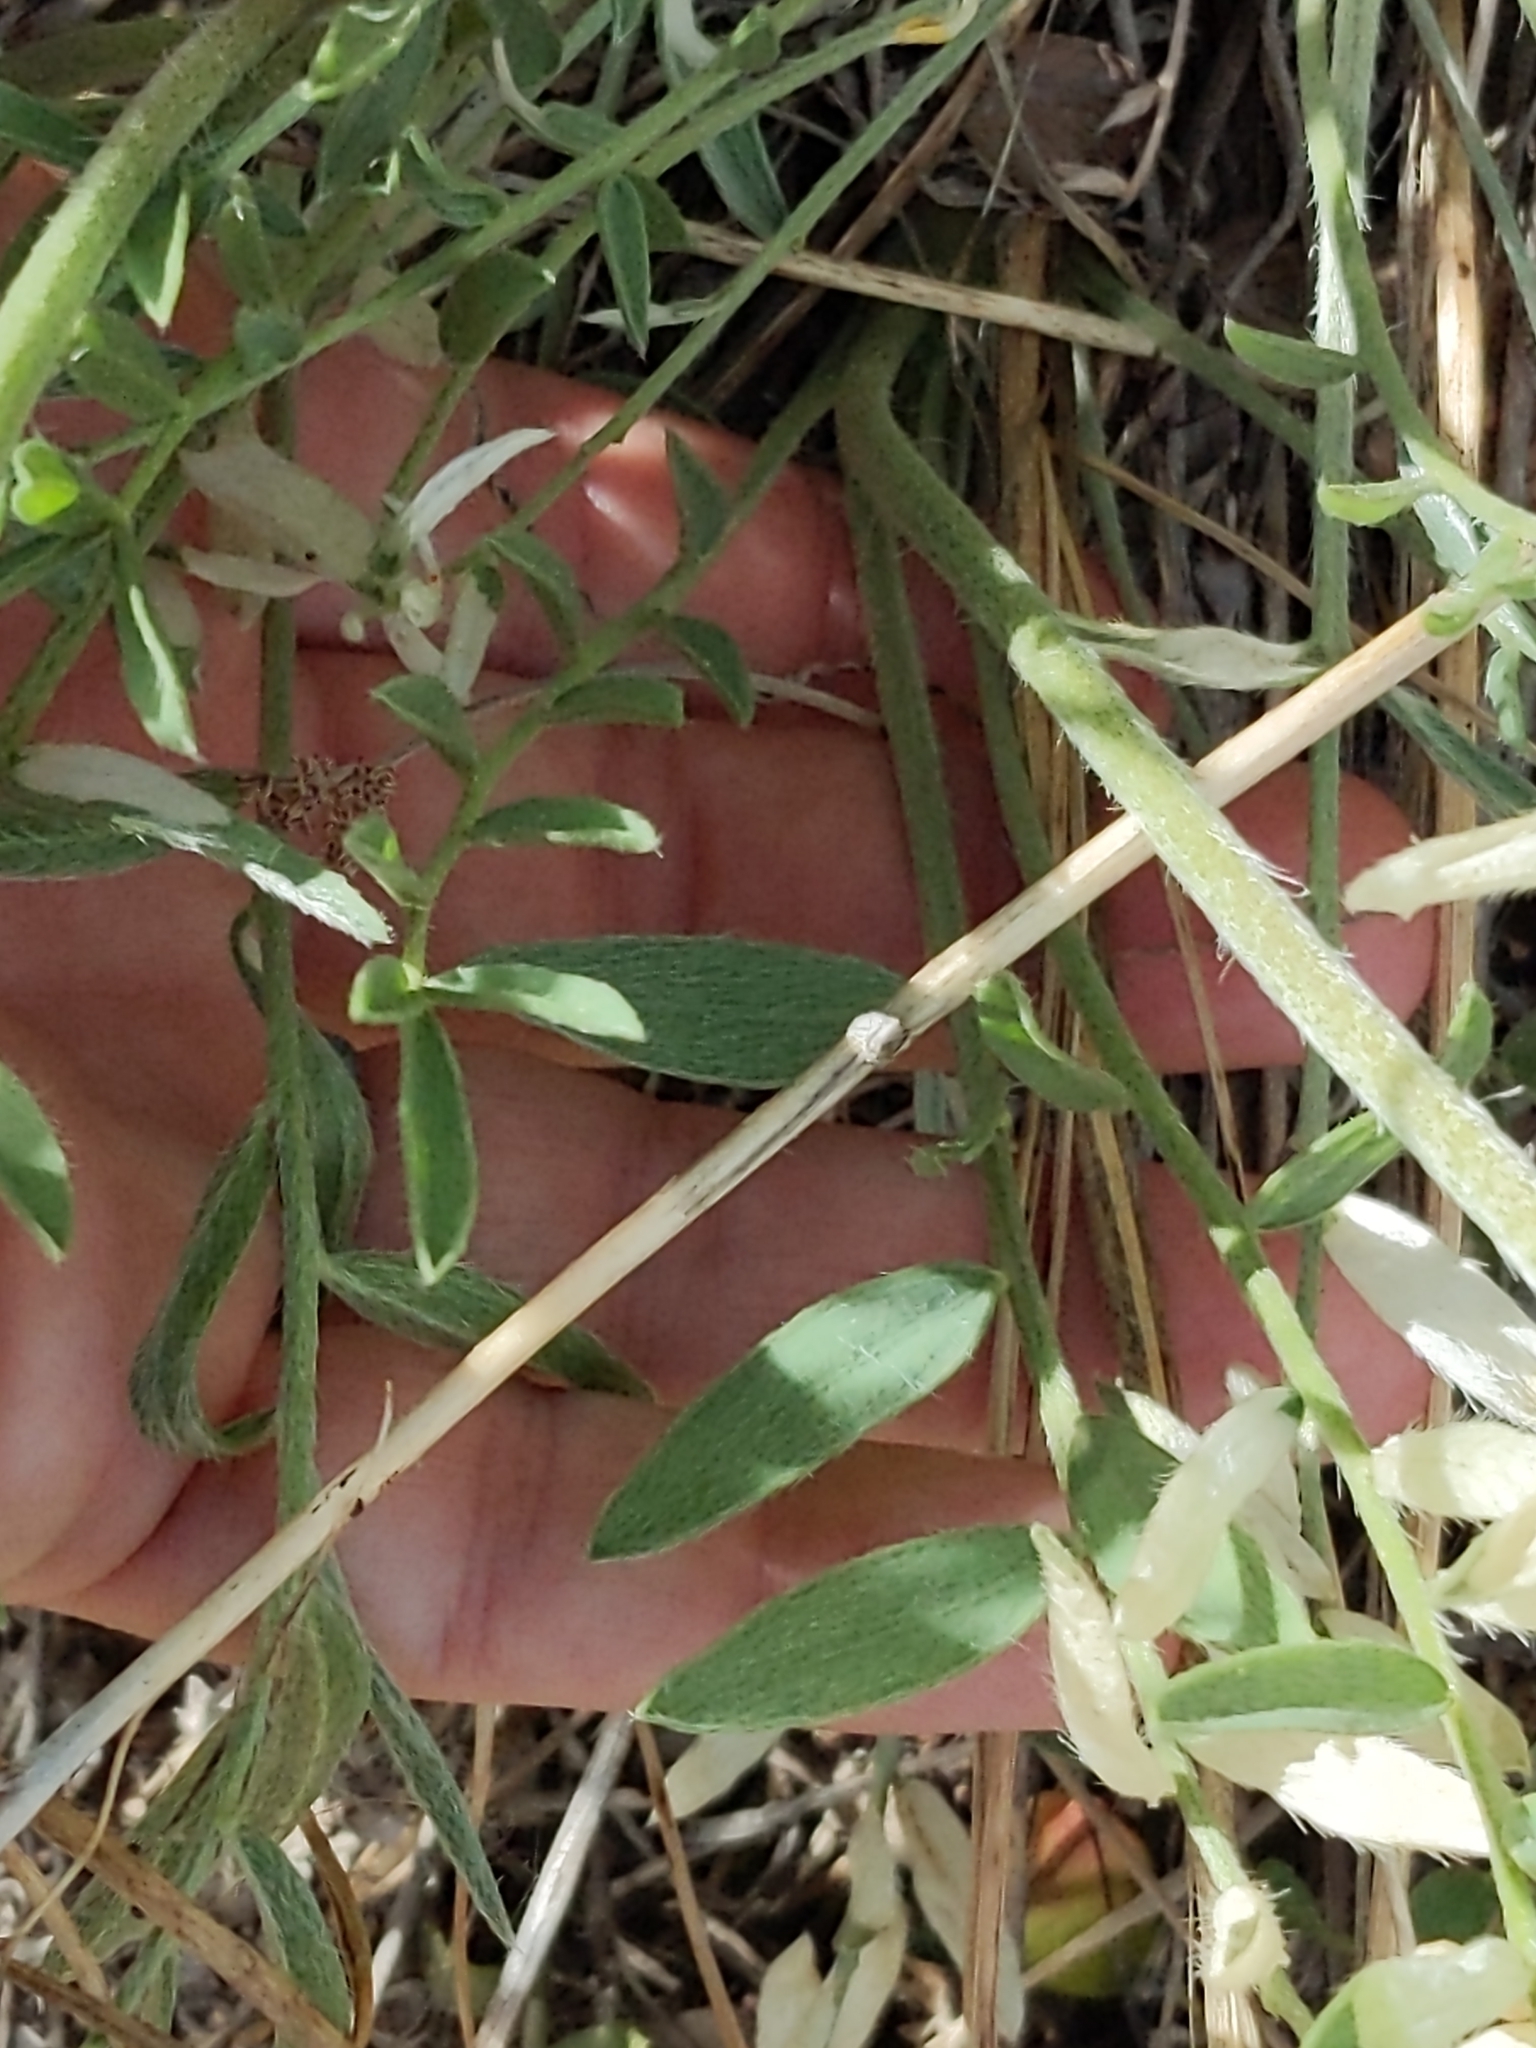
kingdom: Plantae
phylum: Tracheophyta
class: Magnoliopsida
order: Fabales
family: Fabaceae
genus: Oxytropis
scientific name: Oxytropis lambertii
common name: Purple locoweed
